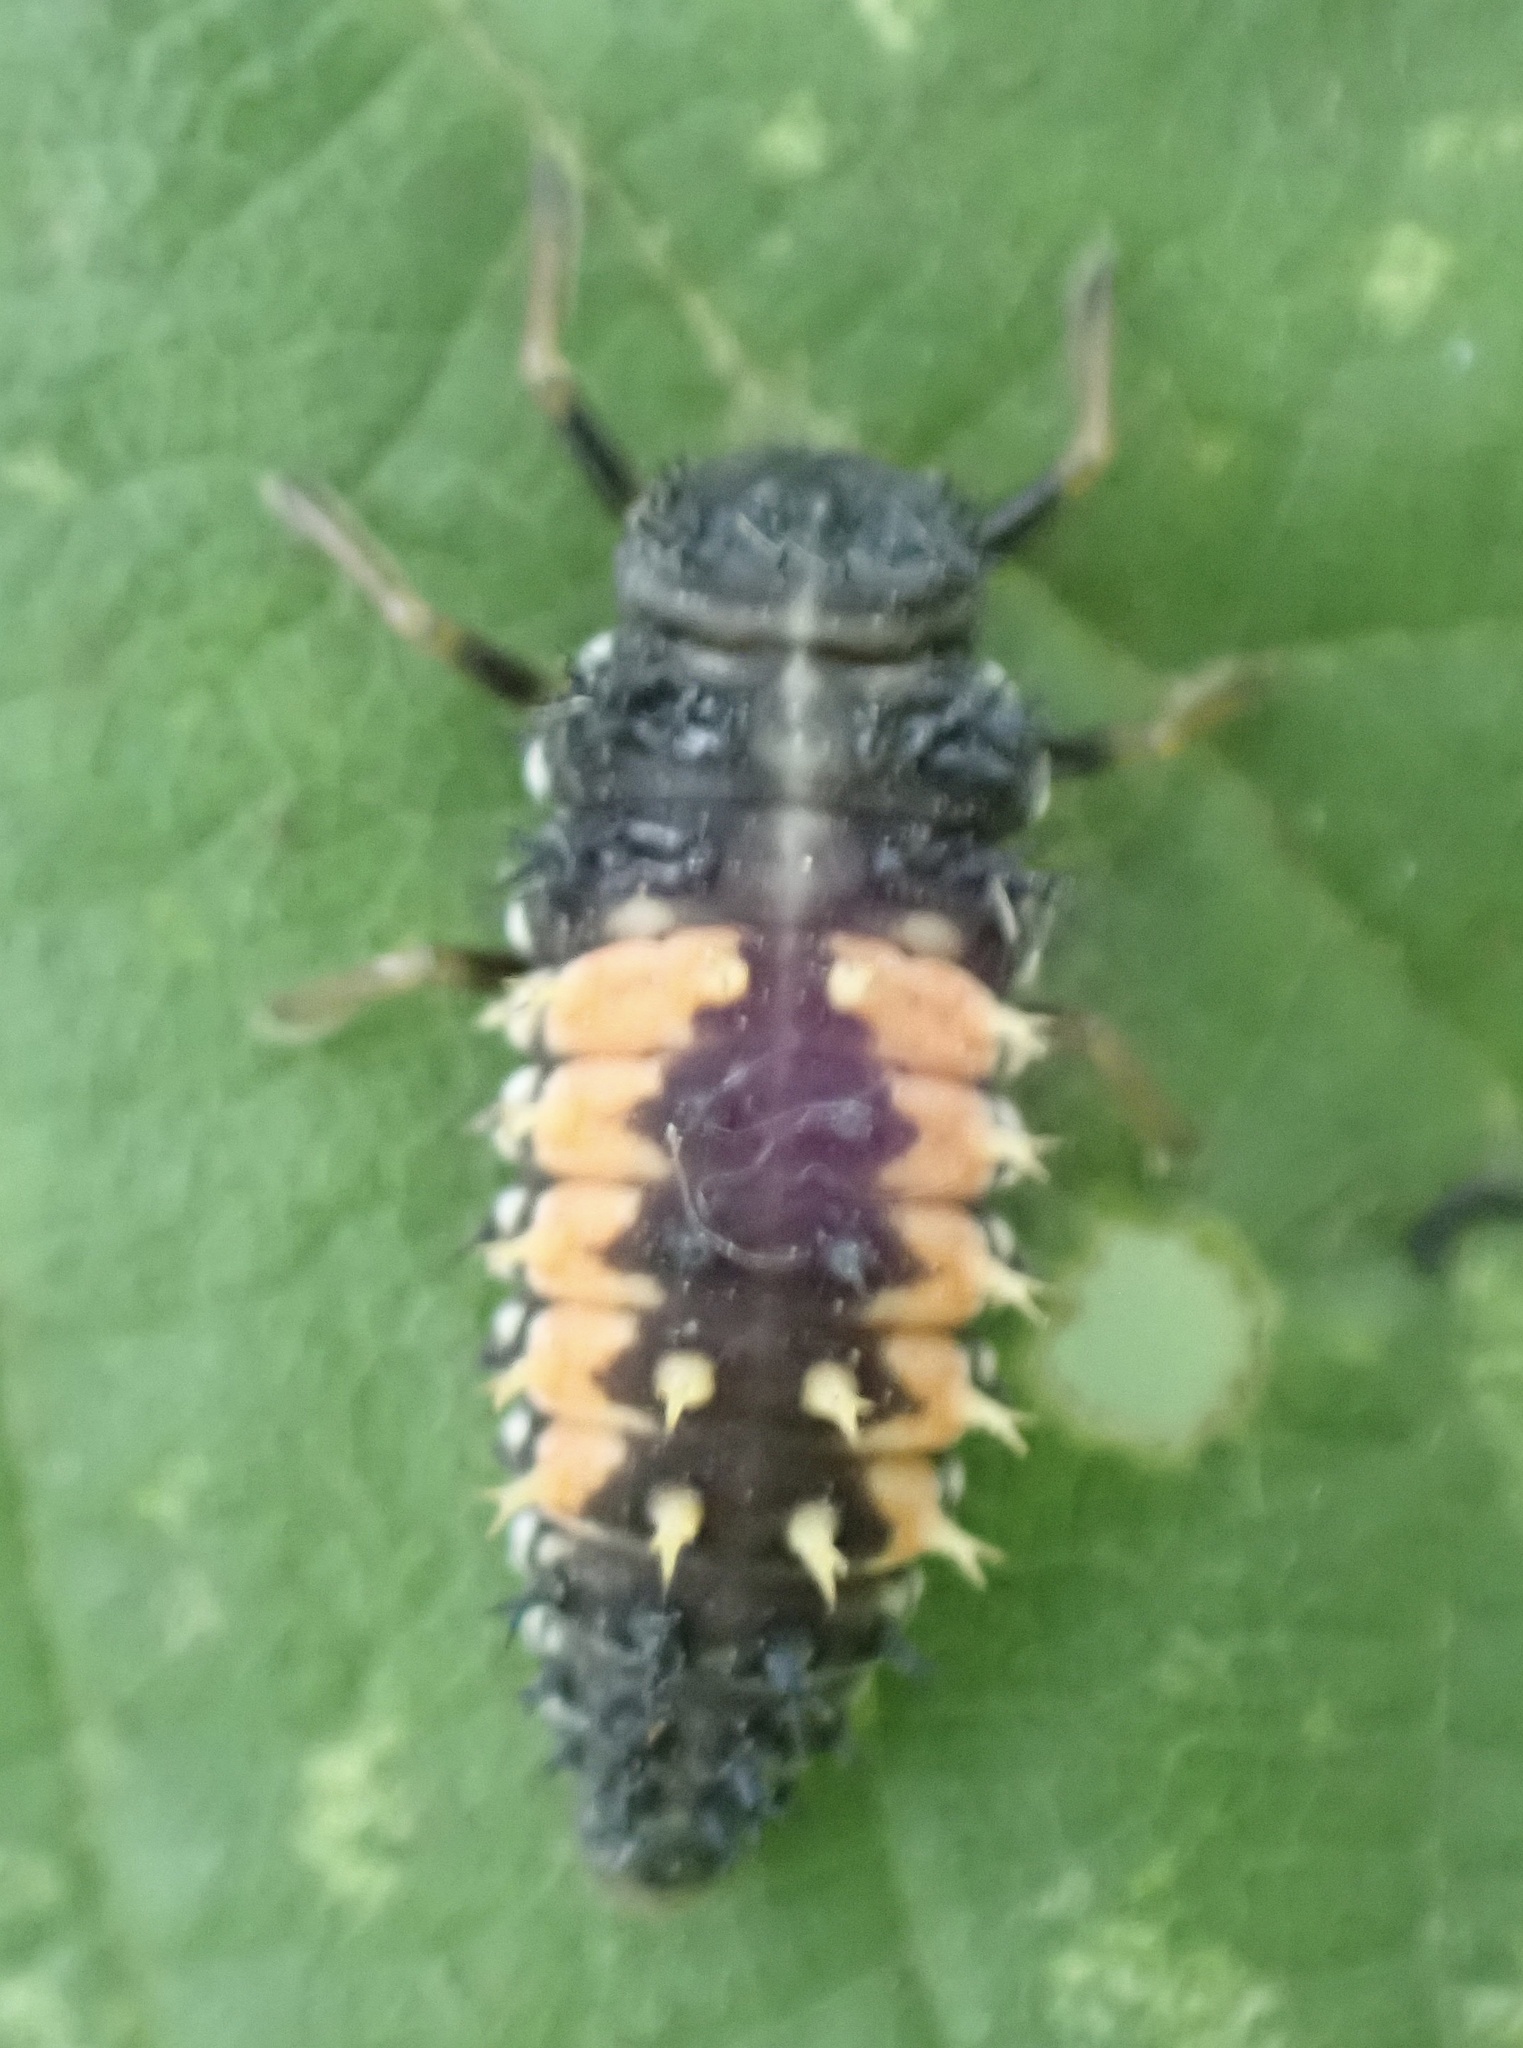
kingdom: Animalia
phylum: Arthropoda
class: Insecta
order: Coleoptera
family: Coccinellidae
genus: Harmonia
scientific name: Harmonia axyridis
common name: Harlequin ladybird
